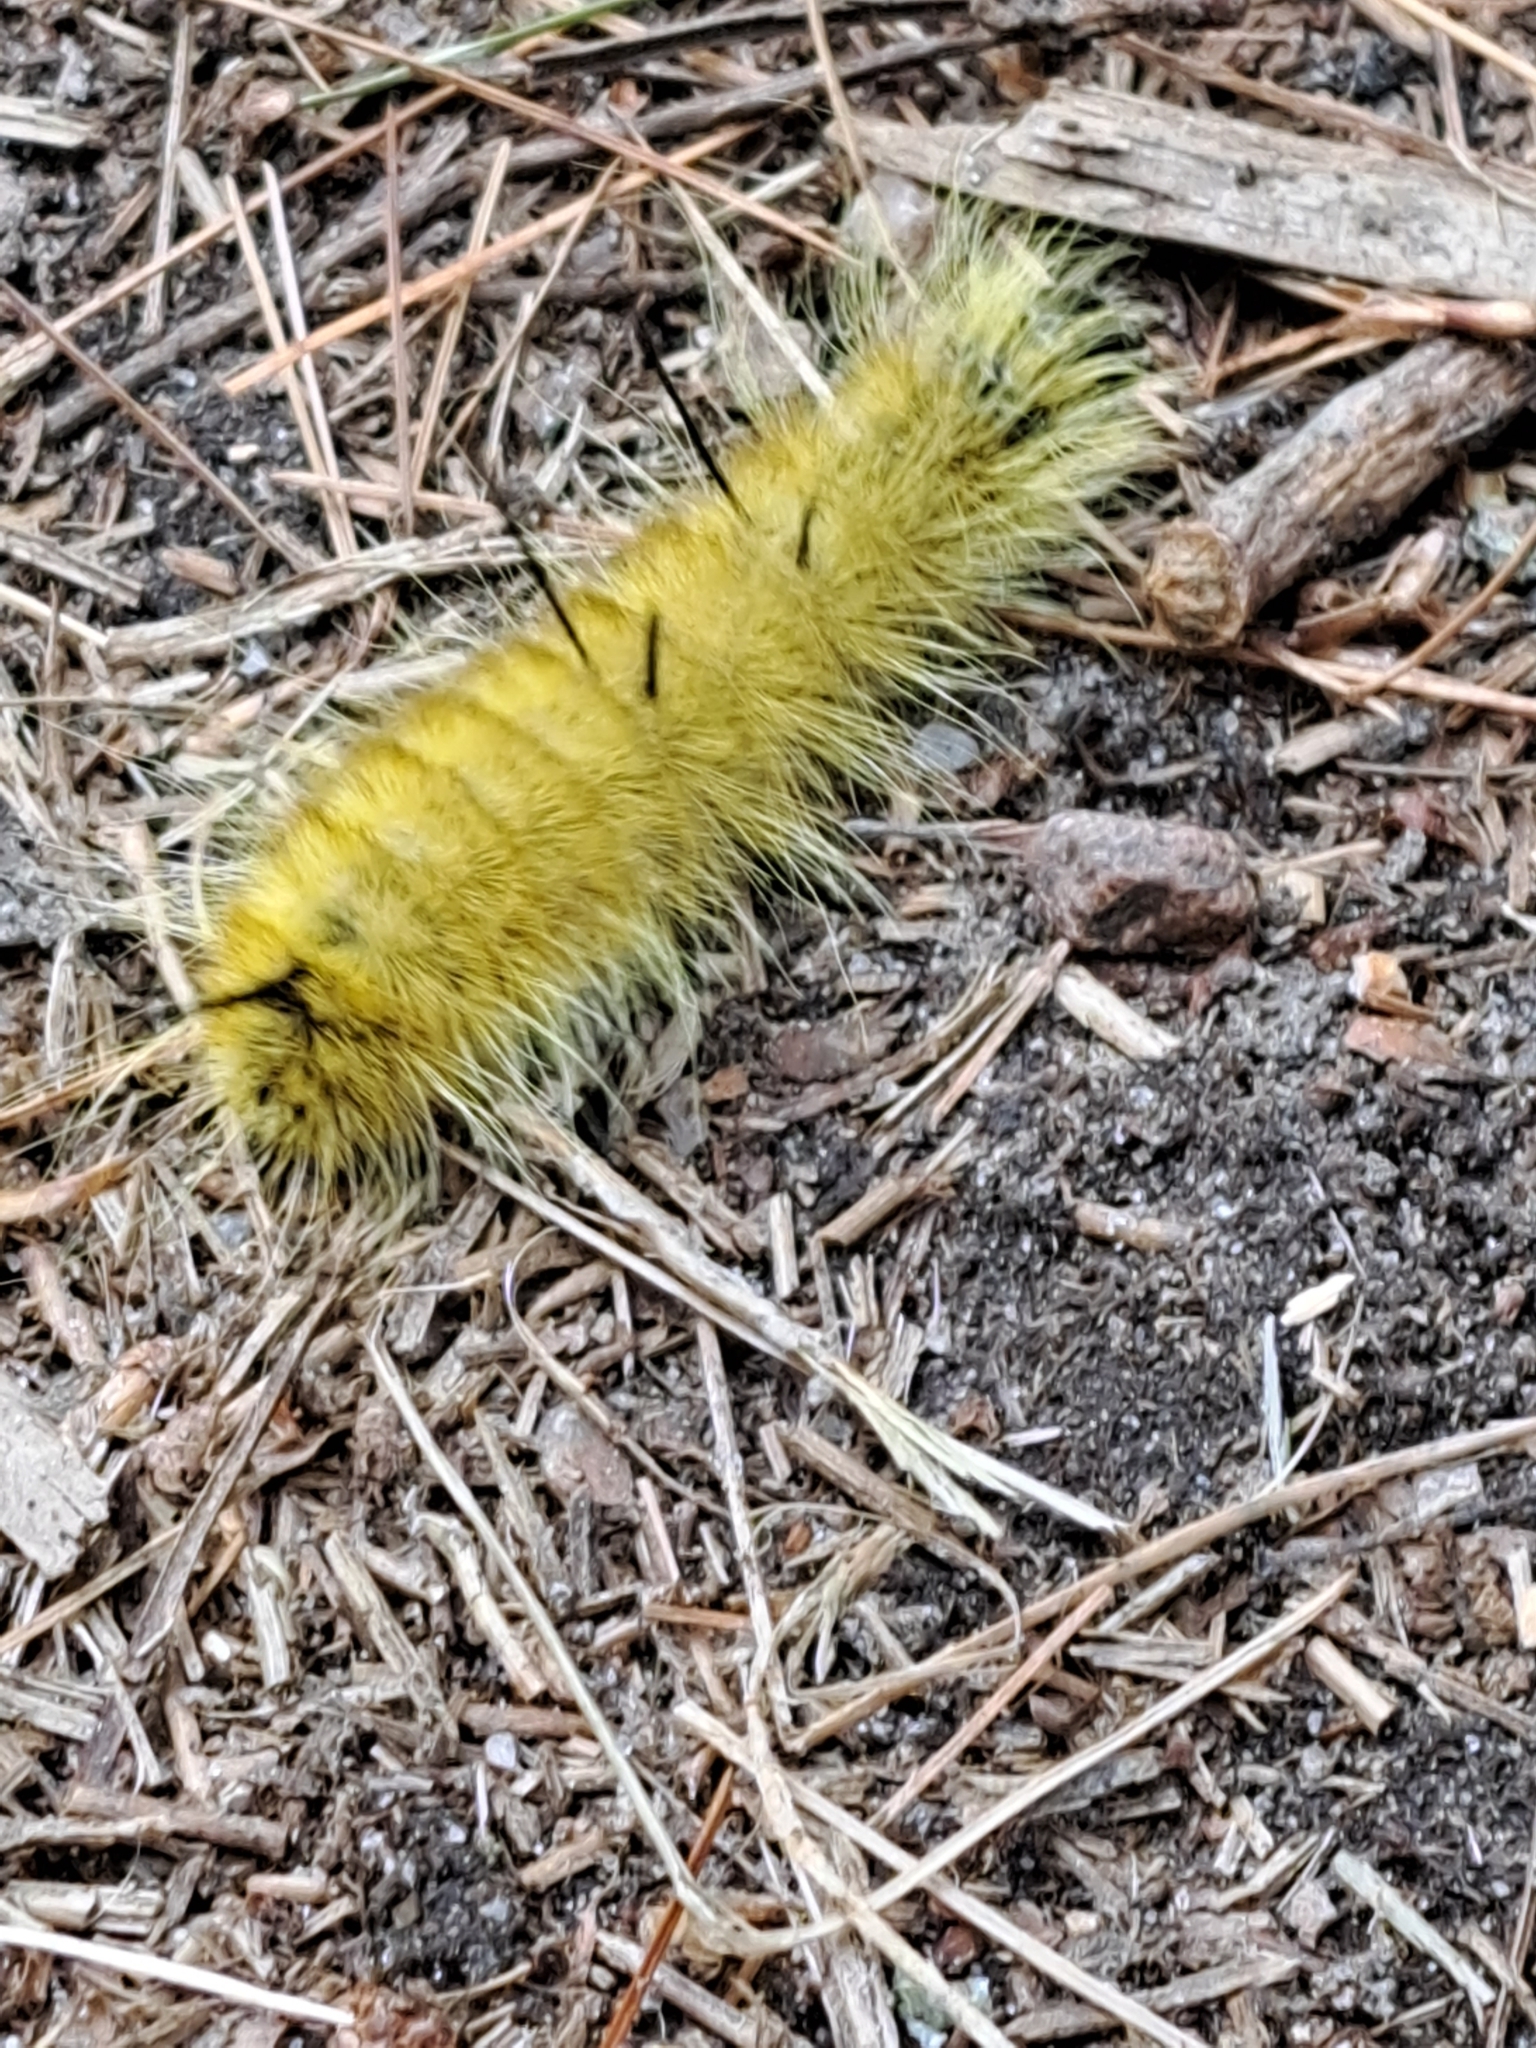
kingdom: Animalia
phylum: Arthropoda
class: Insecta
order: Lepidoptera
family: Noctuidae
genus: Acronicta
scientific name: Acronicta americana
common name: American dagger
